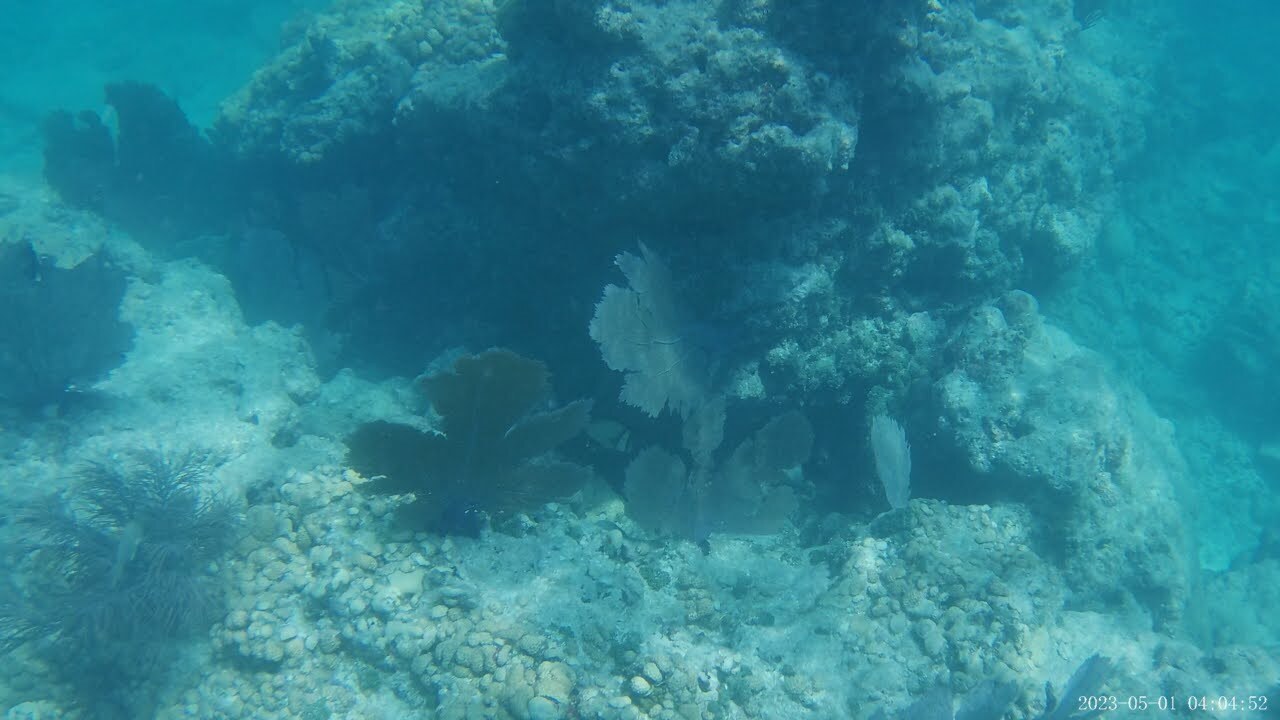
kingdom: Animalia
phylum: Chordata
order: Perciformes
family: Pomacentridae
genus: Stegastes
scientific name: Stegastes partitus
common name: Bicolor damselfish
